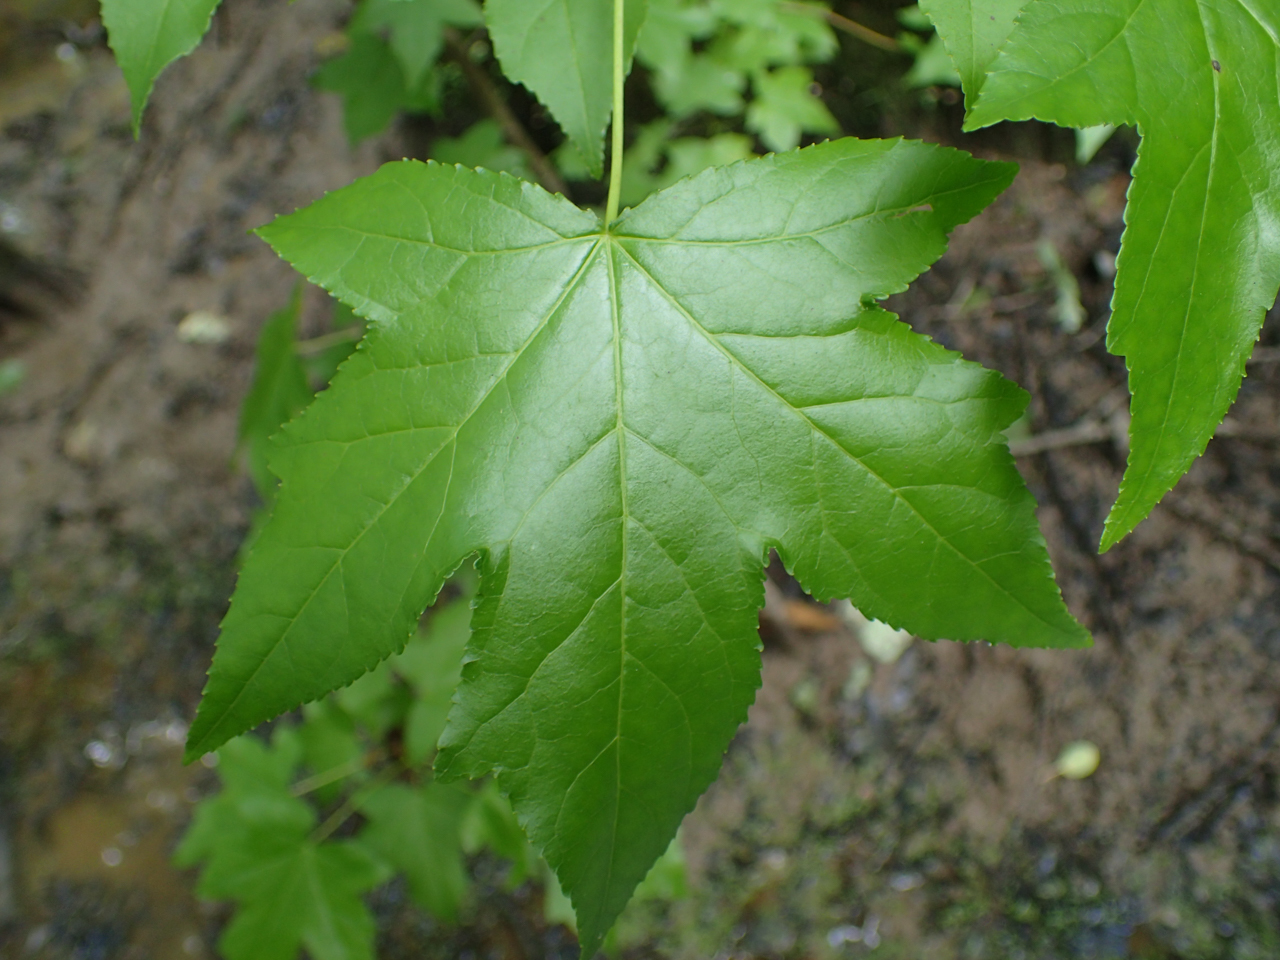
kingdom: Plantae
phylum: Tracheophyta
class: Magnoliopsida
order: Saxifragales
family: Altingiaceae
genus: Liquidambar
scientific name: Liquidambar styraciflua
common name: Sweet gum
